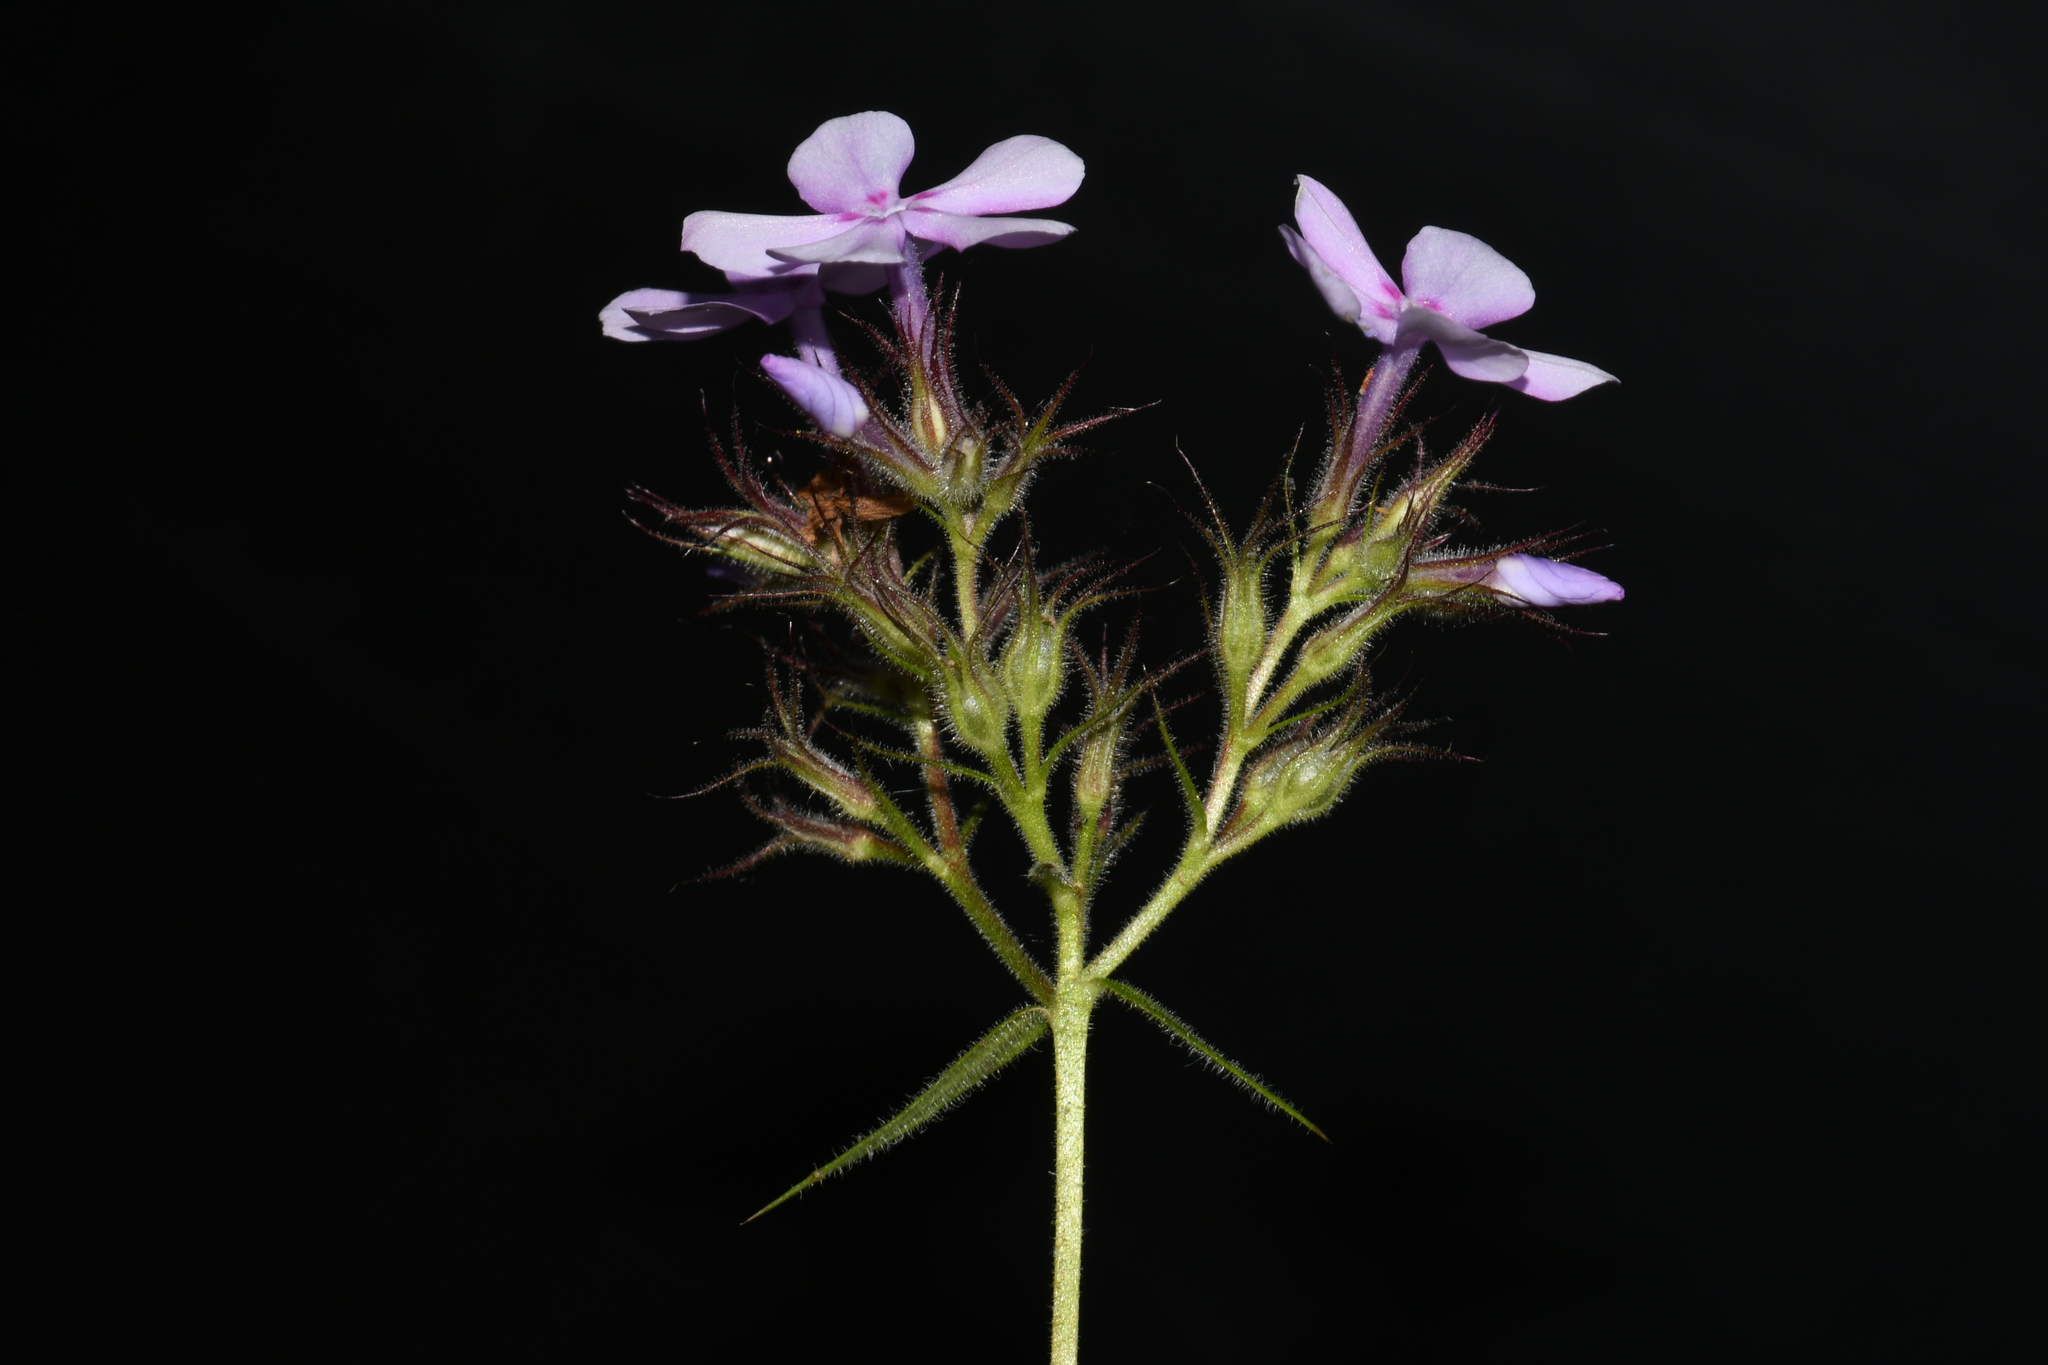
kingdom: Plantae
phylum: Tracheophyta
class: Magnoliopsida
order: Ericales
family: Polemoniaceae
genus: Phlox
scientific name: Phlox pilosa
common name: Prairie phlox
